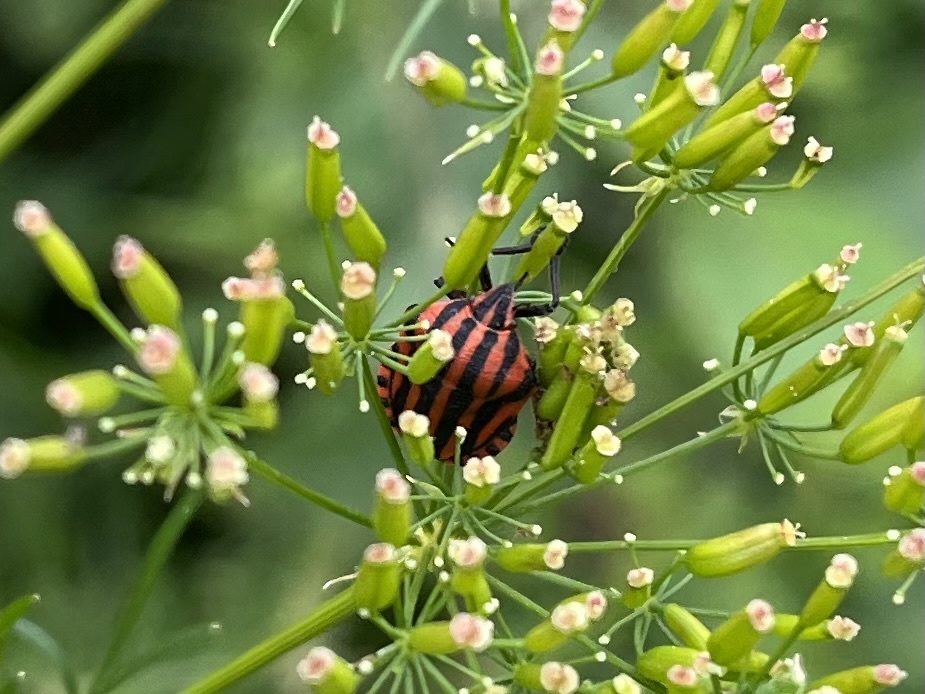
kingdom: Animalia
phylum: Arthropoda
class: Insecta
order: Hemiptera
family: Pentatomidae
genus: Graphosoma
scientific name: Graphosoma italicum
